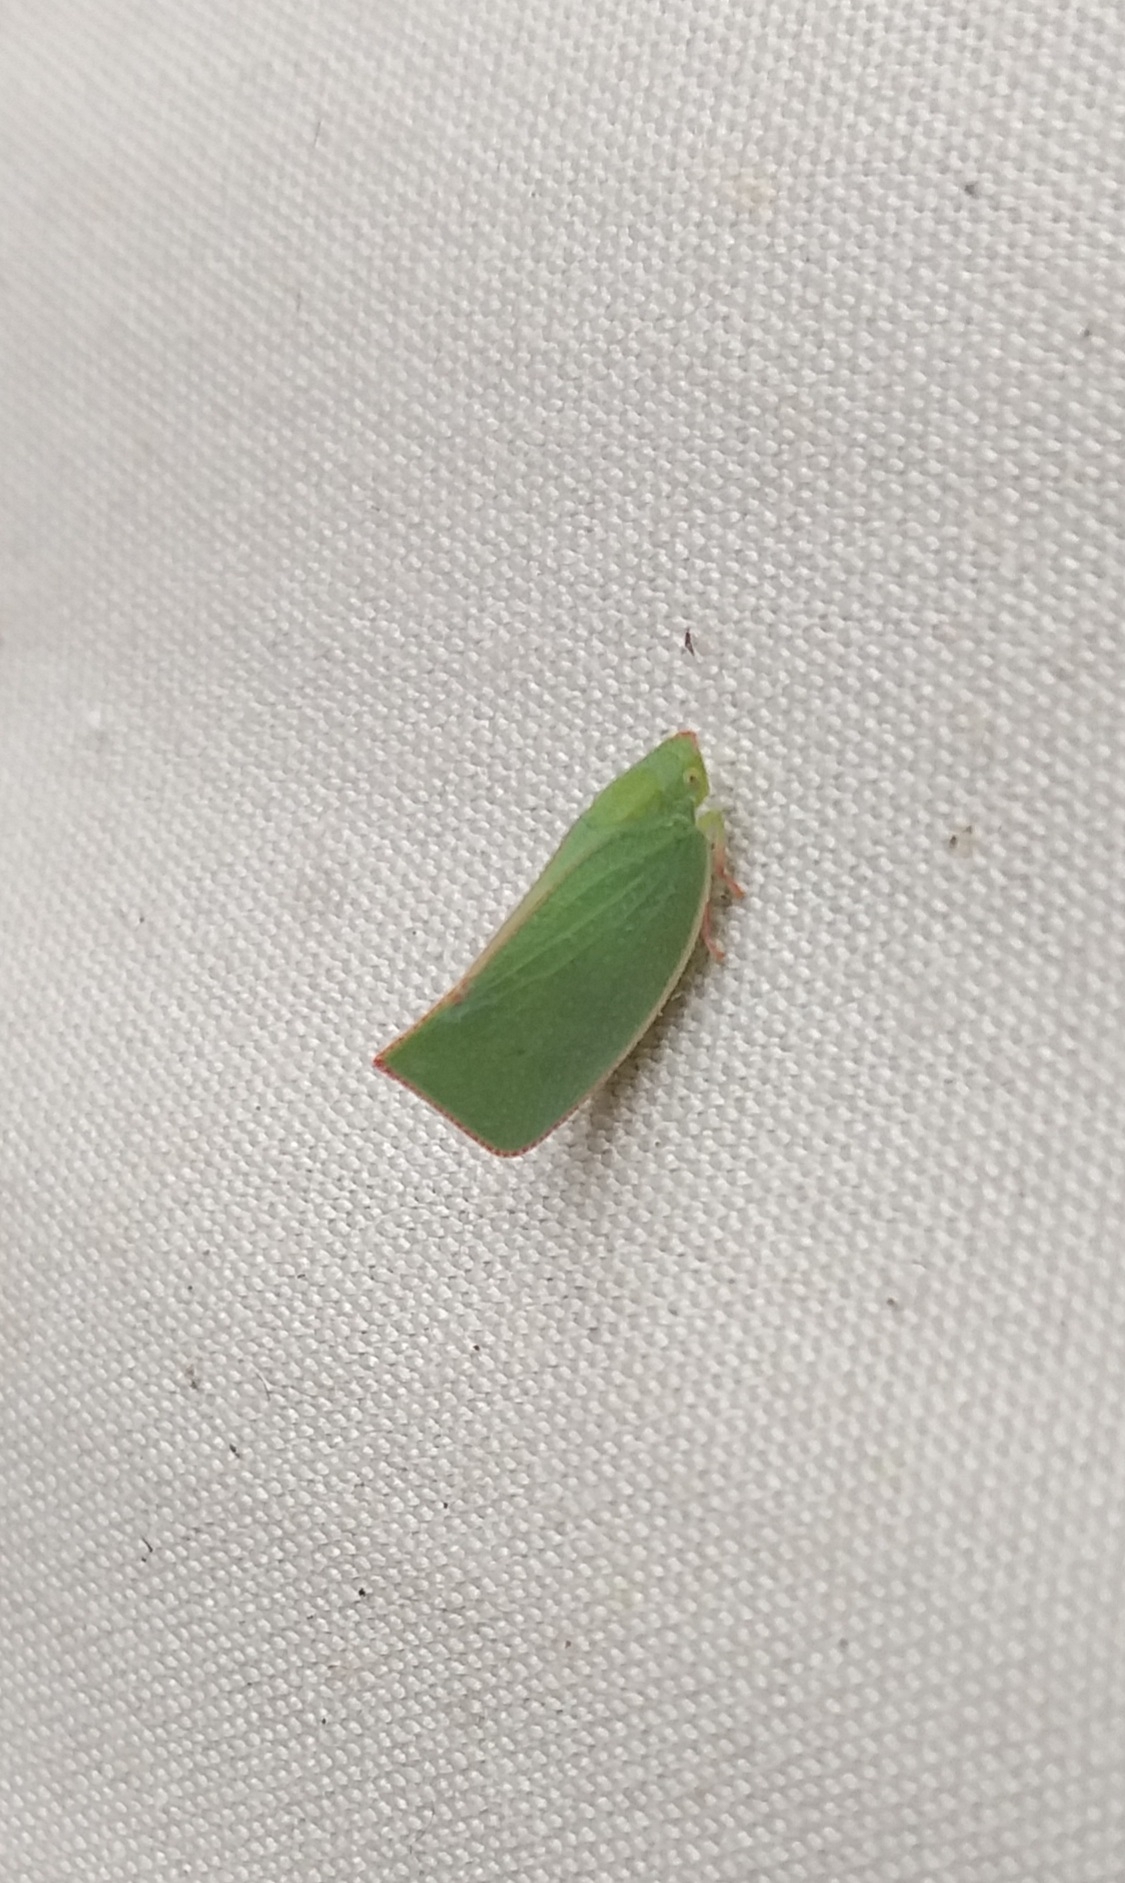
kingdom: Animalia
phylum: Arthropoda
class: Insecta
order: Hemiptera
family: Flatidae
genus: Siphanta
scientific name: Siphanta acuta
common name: Torpedo bug
